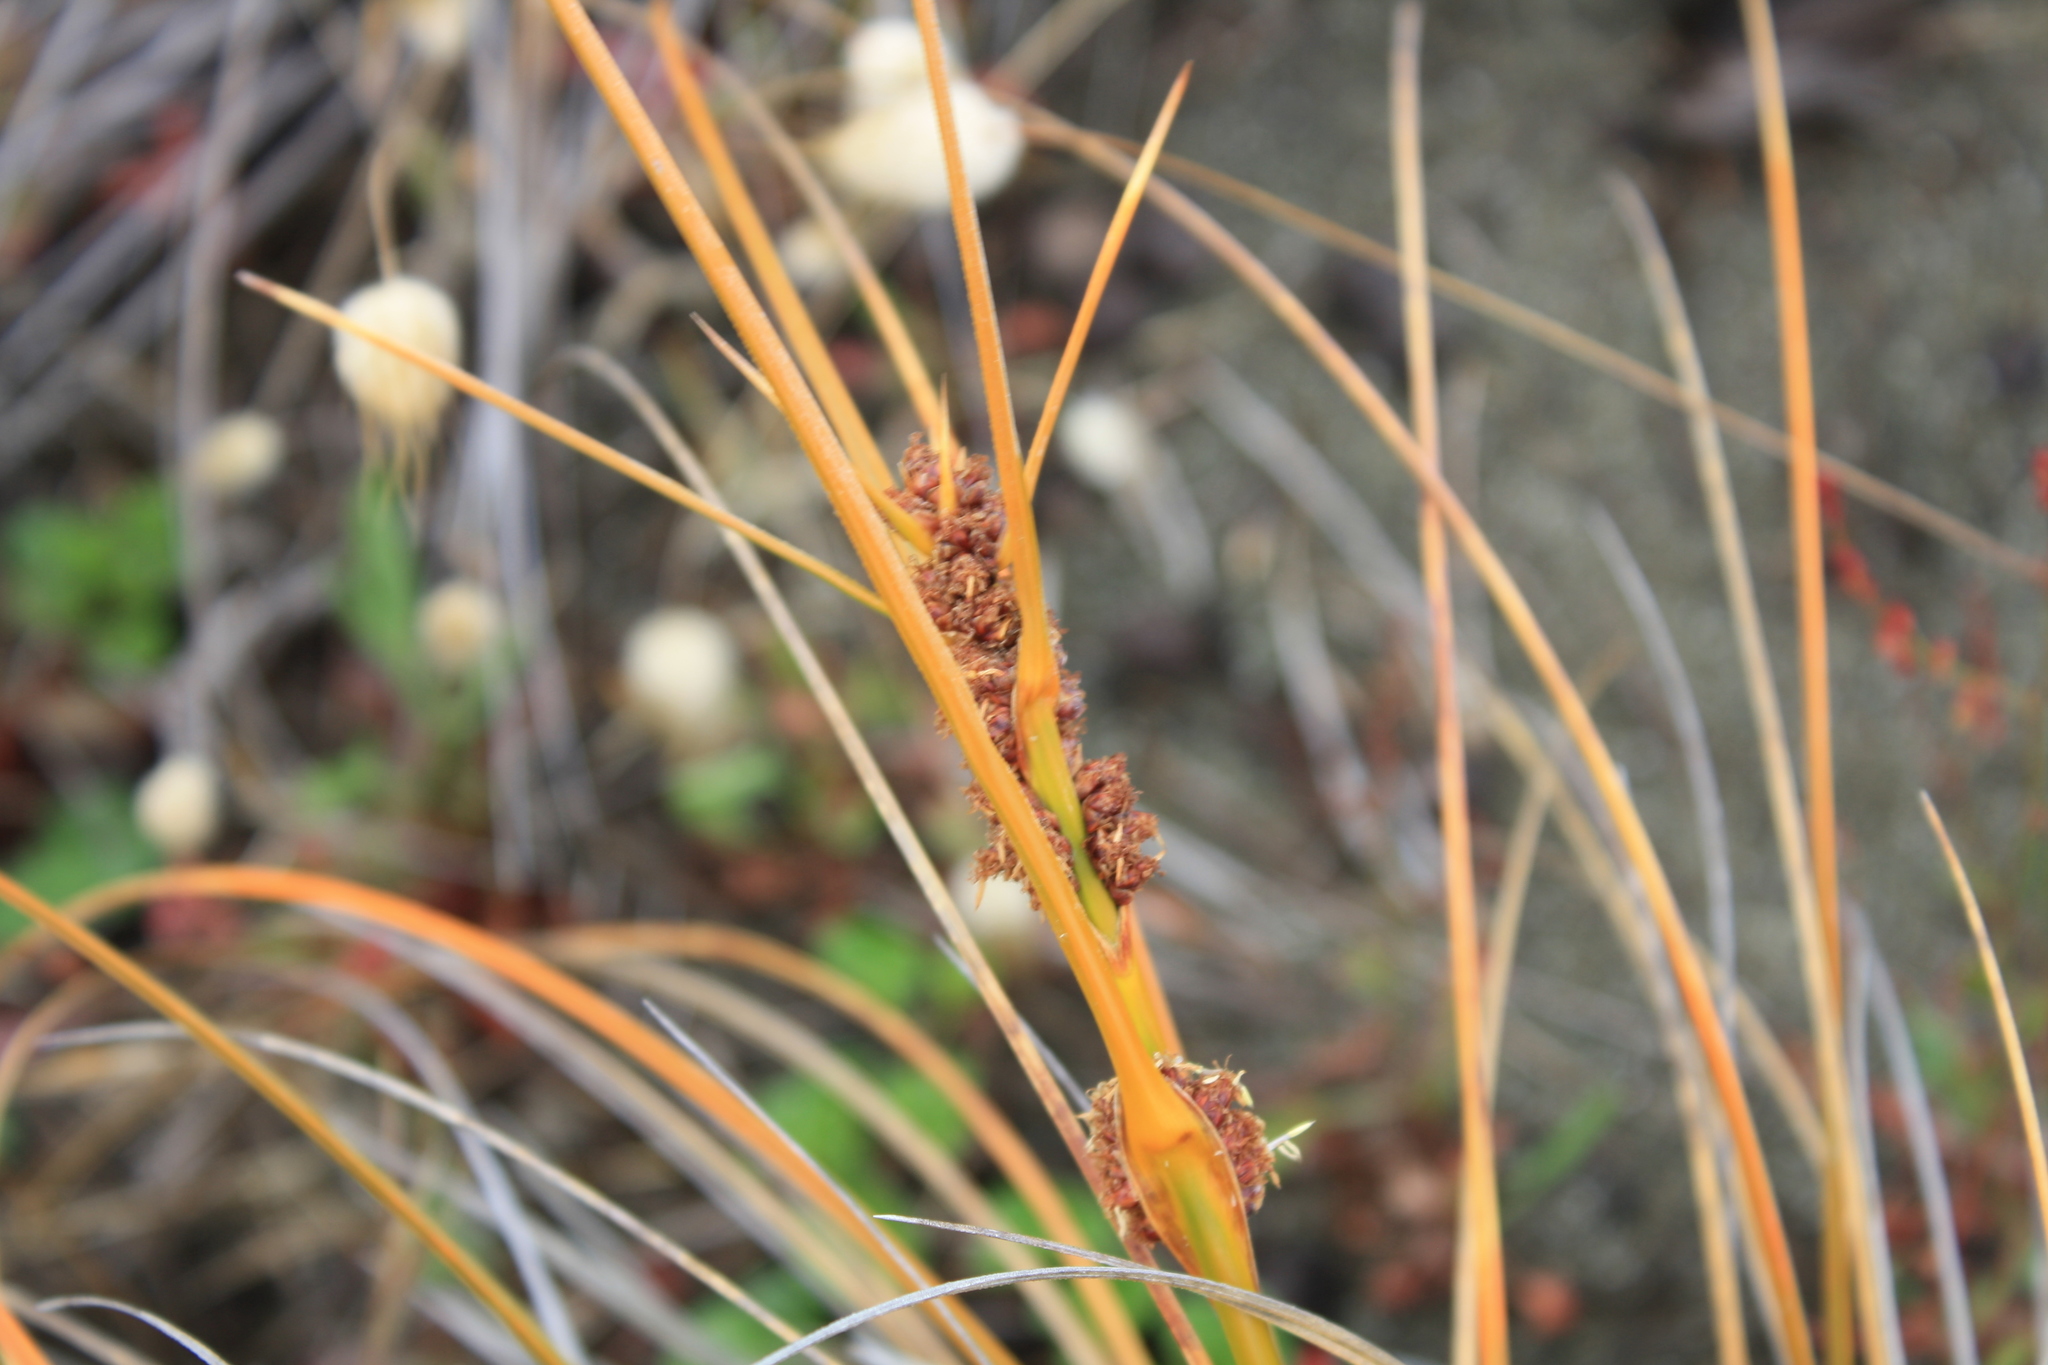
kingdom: Plantae
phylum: Tracheophyta
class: Liliopsida
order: Poales
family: Cyperaceae
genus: Ficinia
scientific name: Ficinia spiralis
